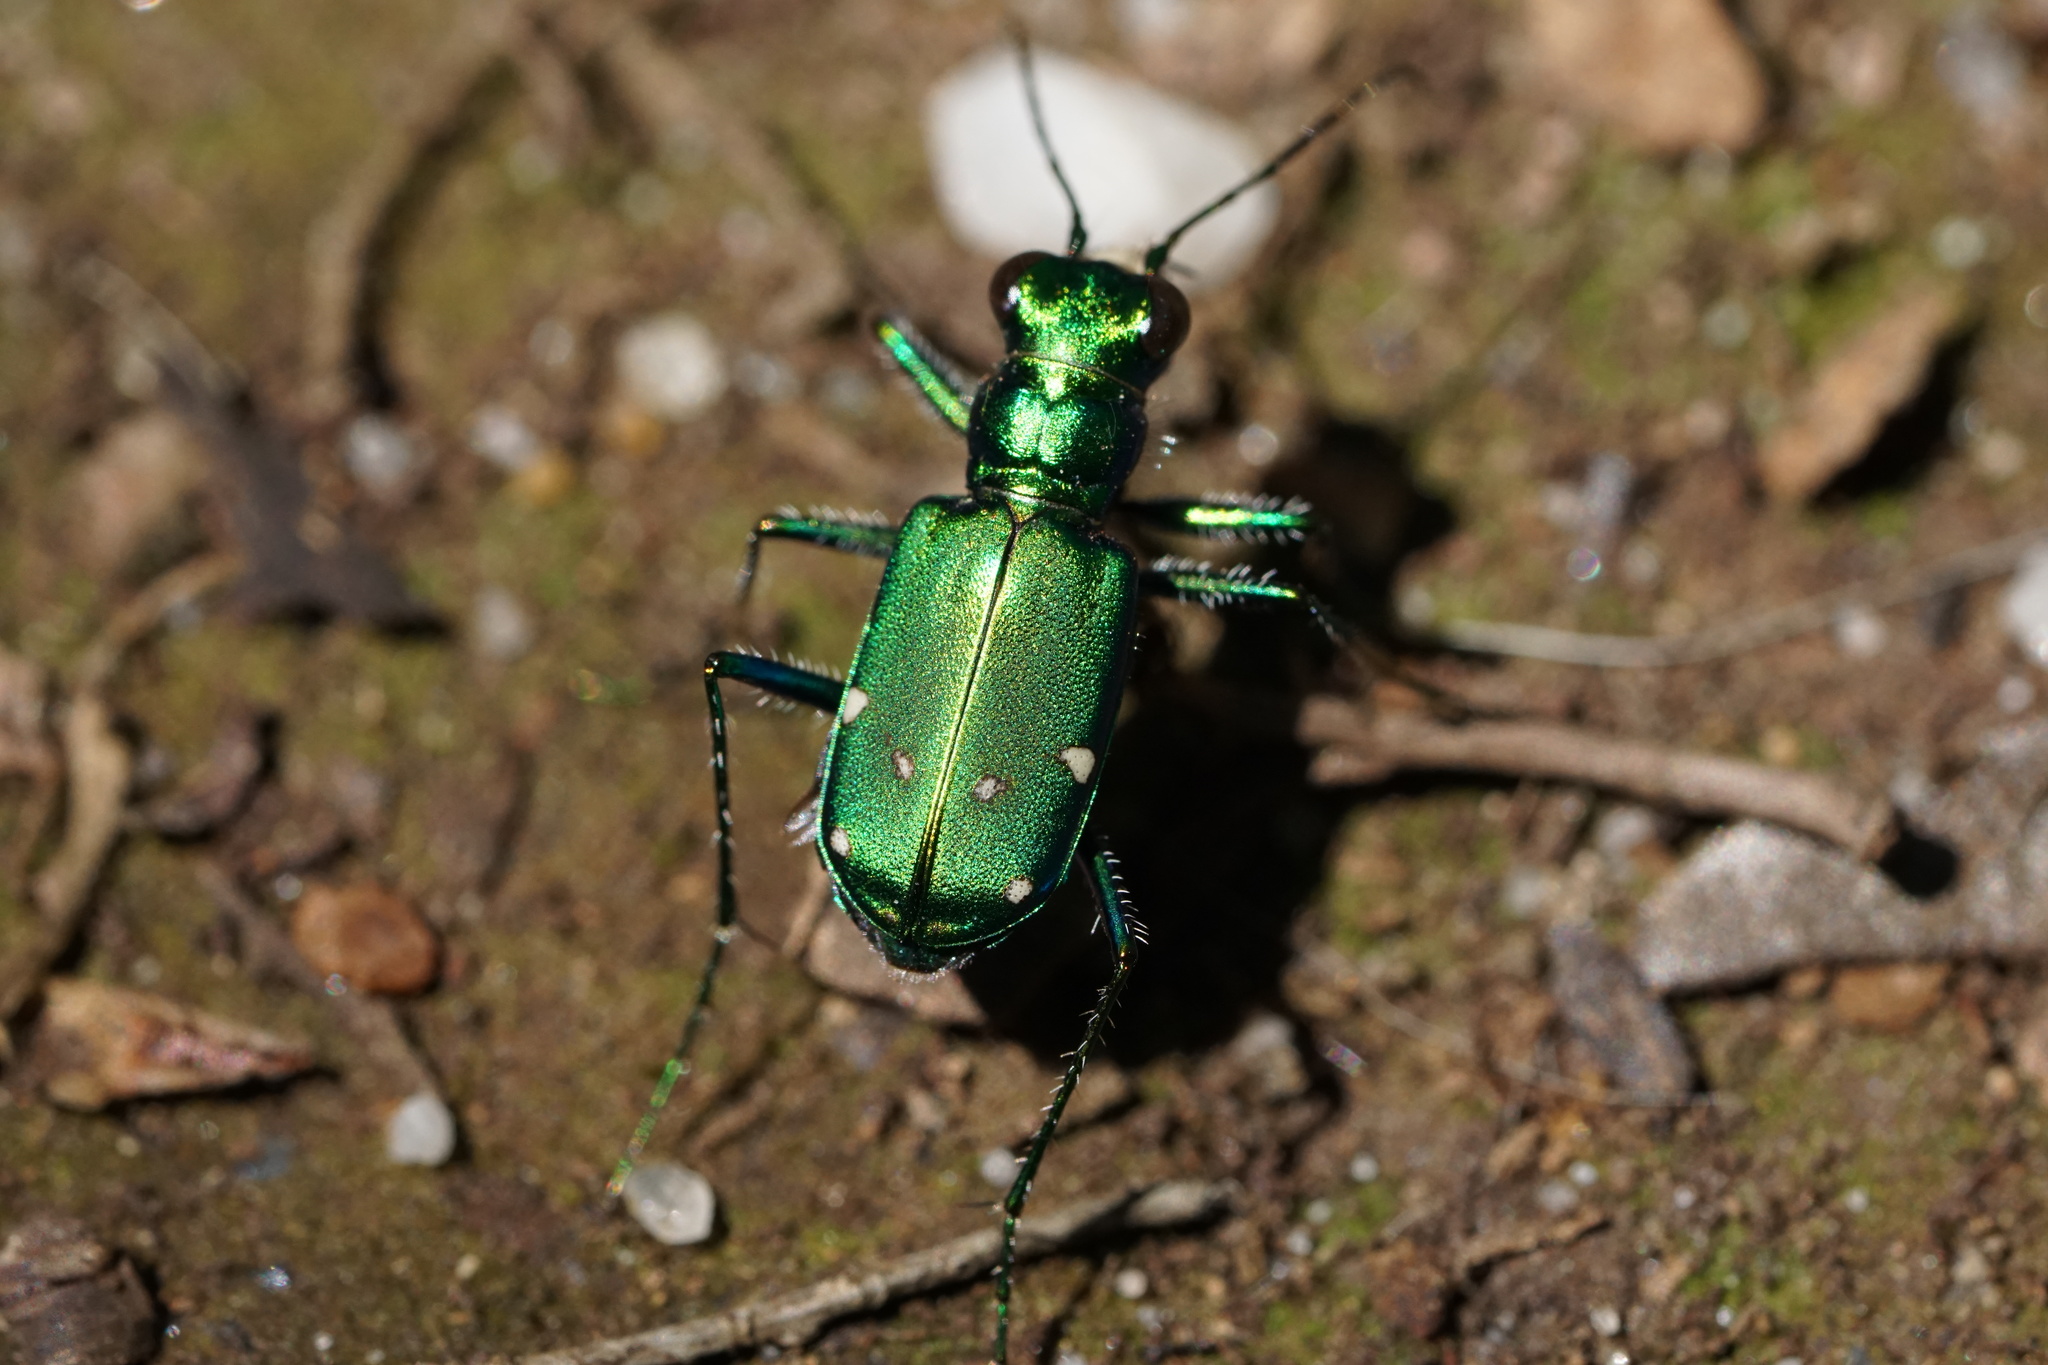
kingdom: Animalia
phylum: Arthropoda
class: Insecta
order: Coleoptera
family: Carabidae
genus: Cicindela
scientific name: Cicindela sexguttata
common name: Six-spotted tiger beetle
